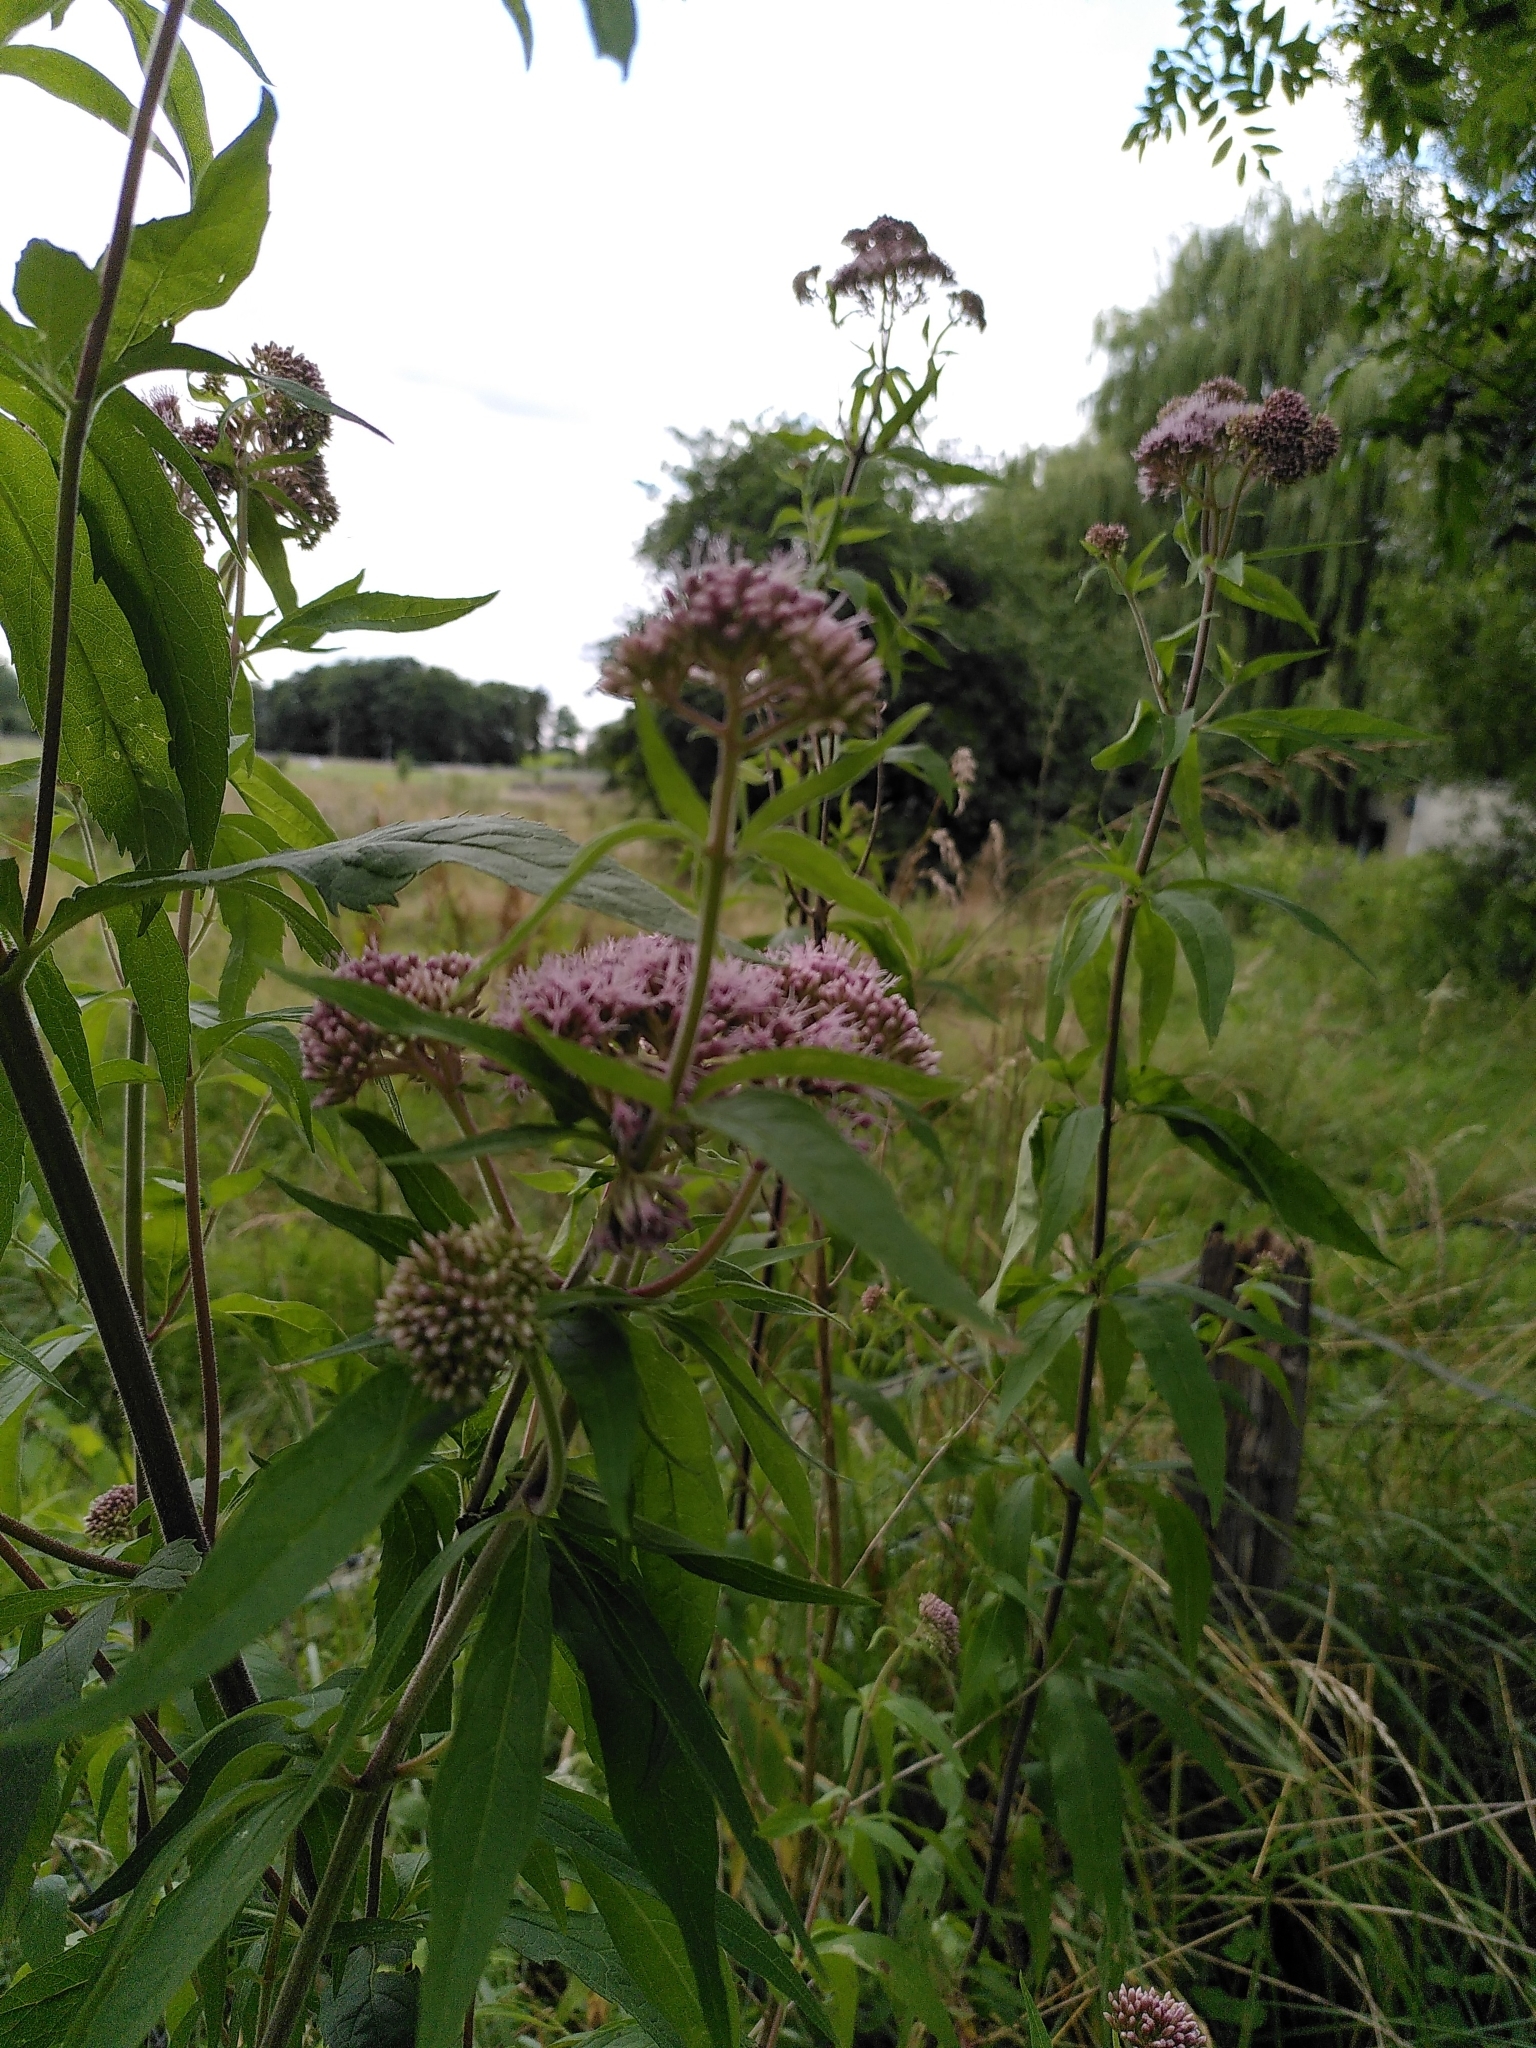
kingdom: Plantae
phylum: Tracheophyta
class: Magnoliopsida
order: Asterales
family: Asteraceae
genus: Eupatorium
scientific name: Eupatorium cannabinum
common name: Hemp-agrimony
